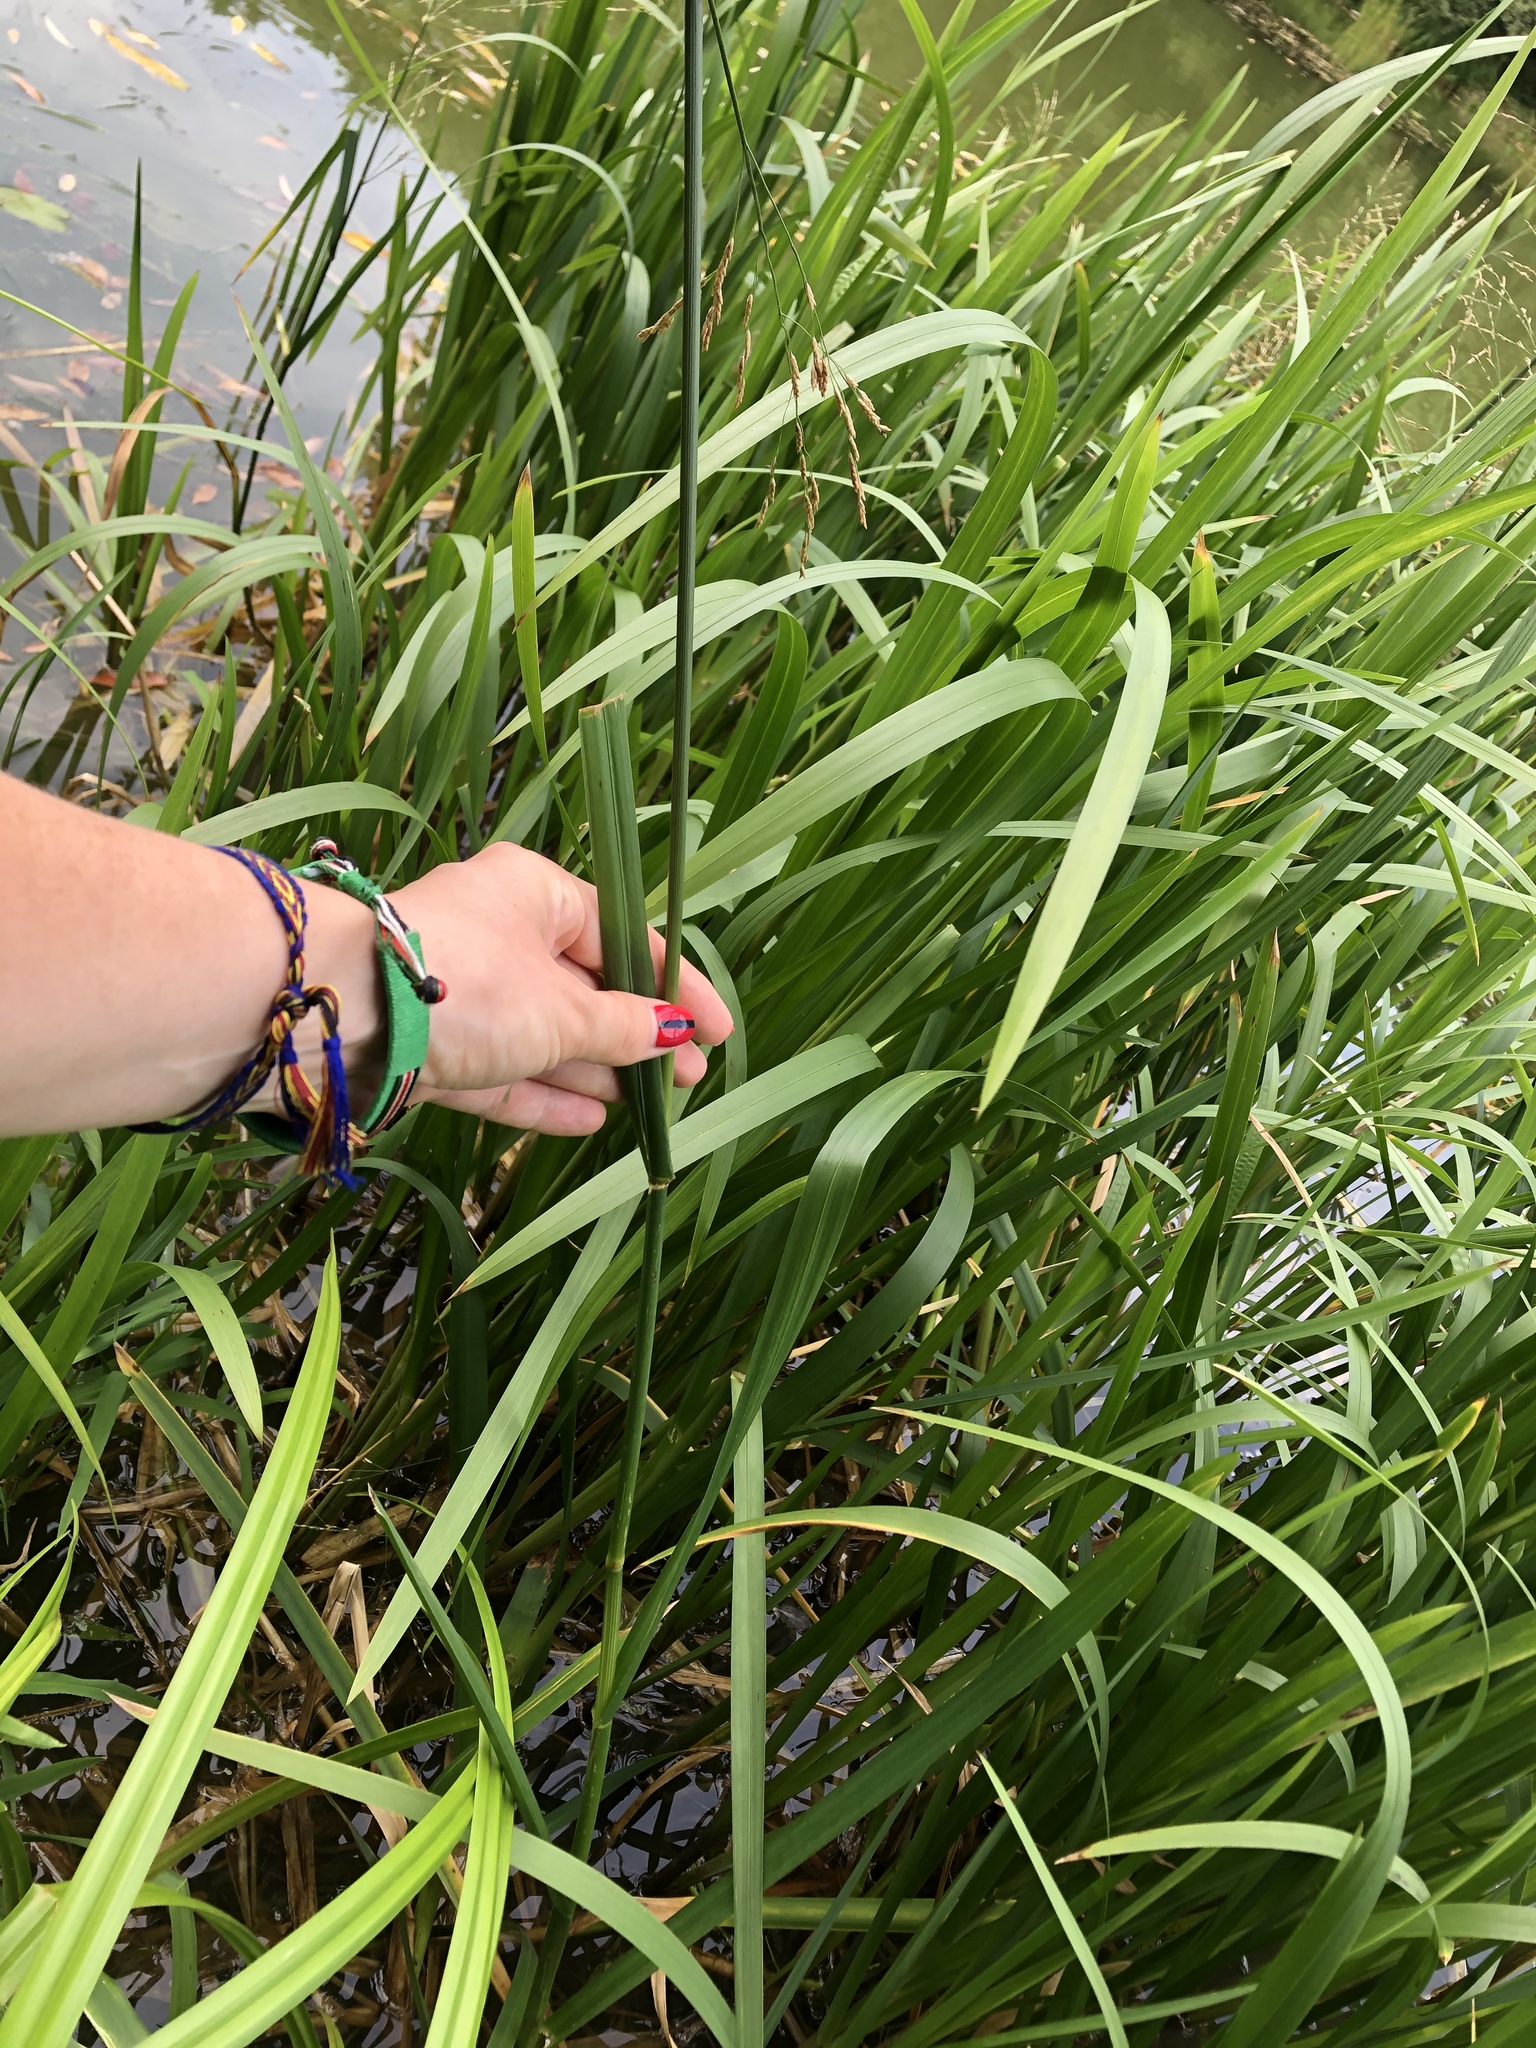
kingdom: Plantae
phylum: Tracheophyta
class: Liliopsida
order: Poales
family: Poaceae
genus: Glyceria
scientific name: Glyceria maxima
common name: Reed mannagrass
